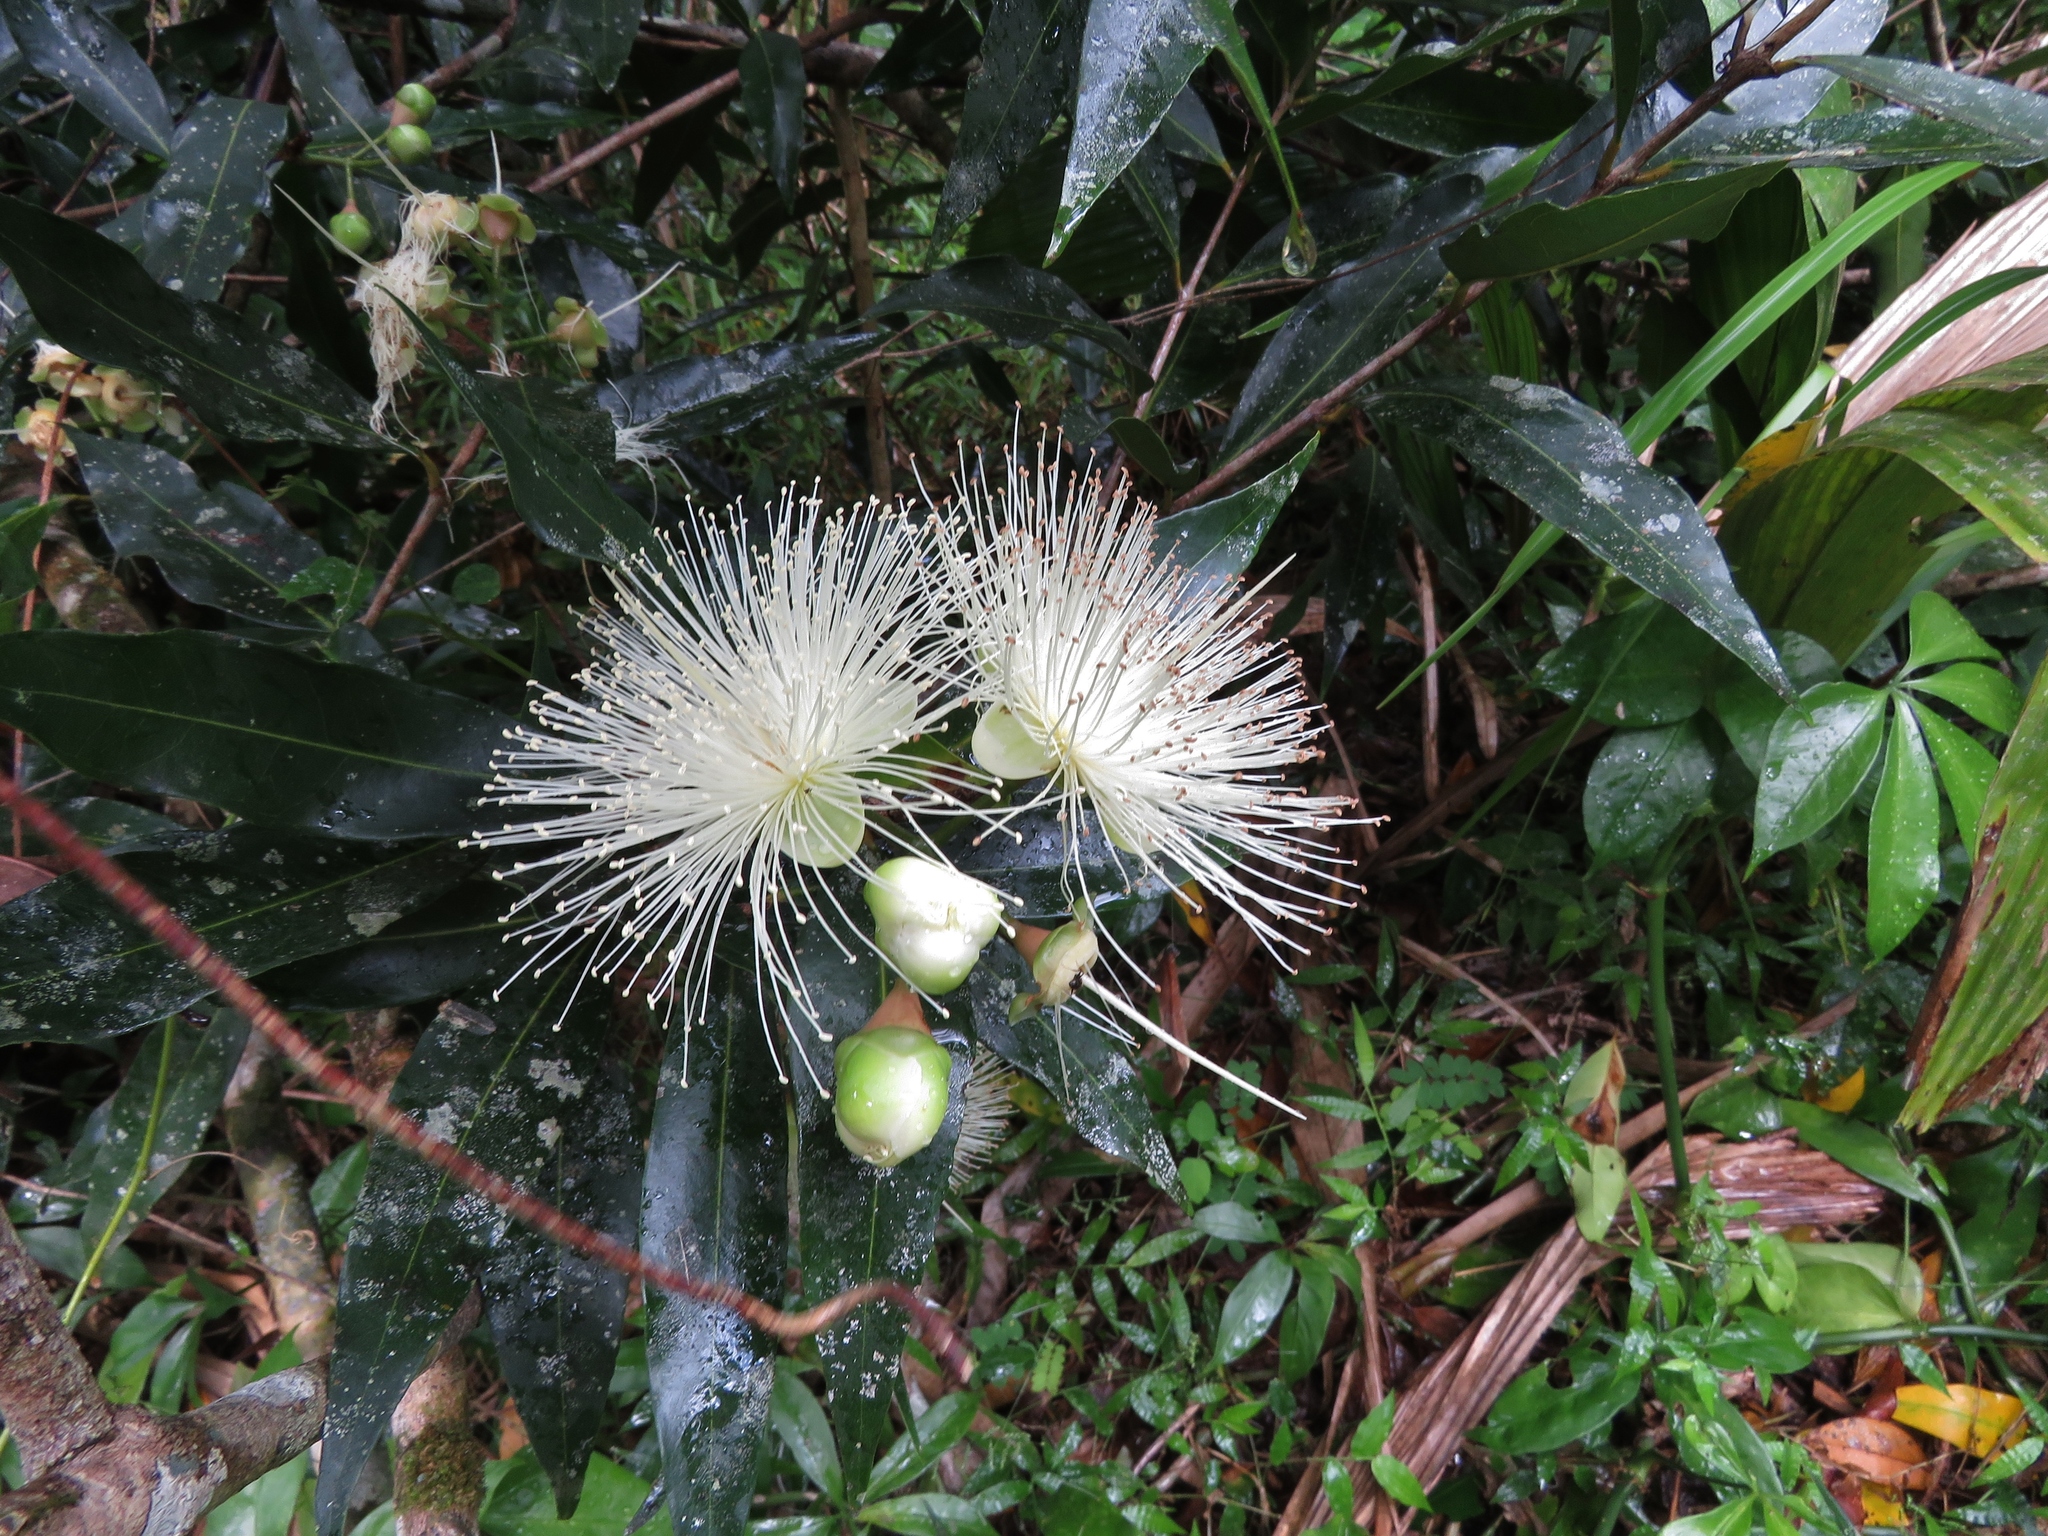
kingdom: Plantae
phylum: Tracheophyta
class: Magnoliopsida
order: Myrtales
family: Myrtaceae
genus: Syzygium
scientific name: Syzygium jambos
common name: Malabar plum
